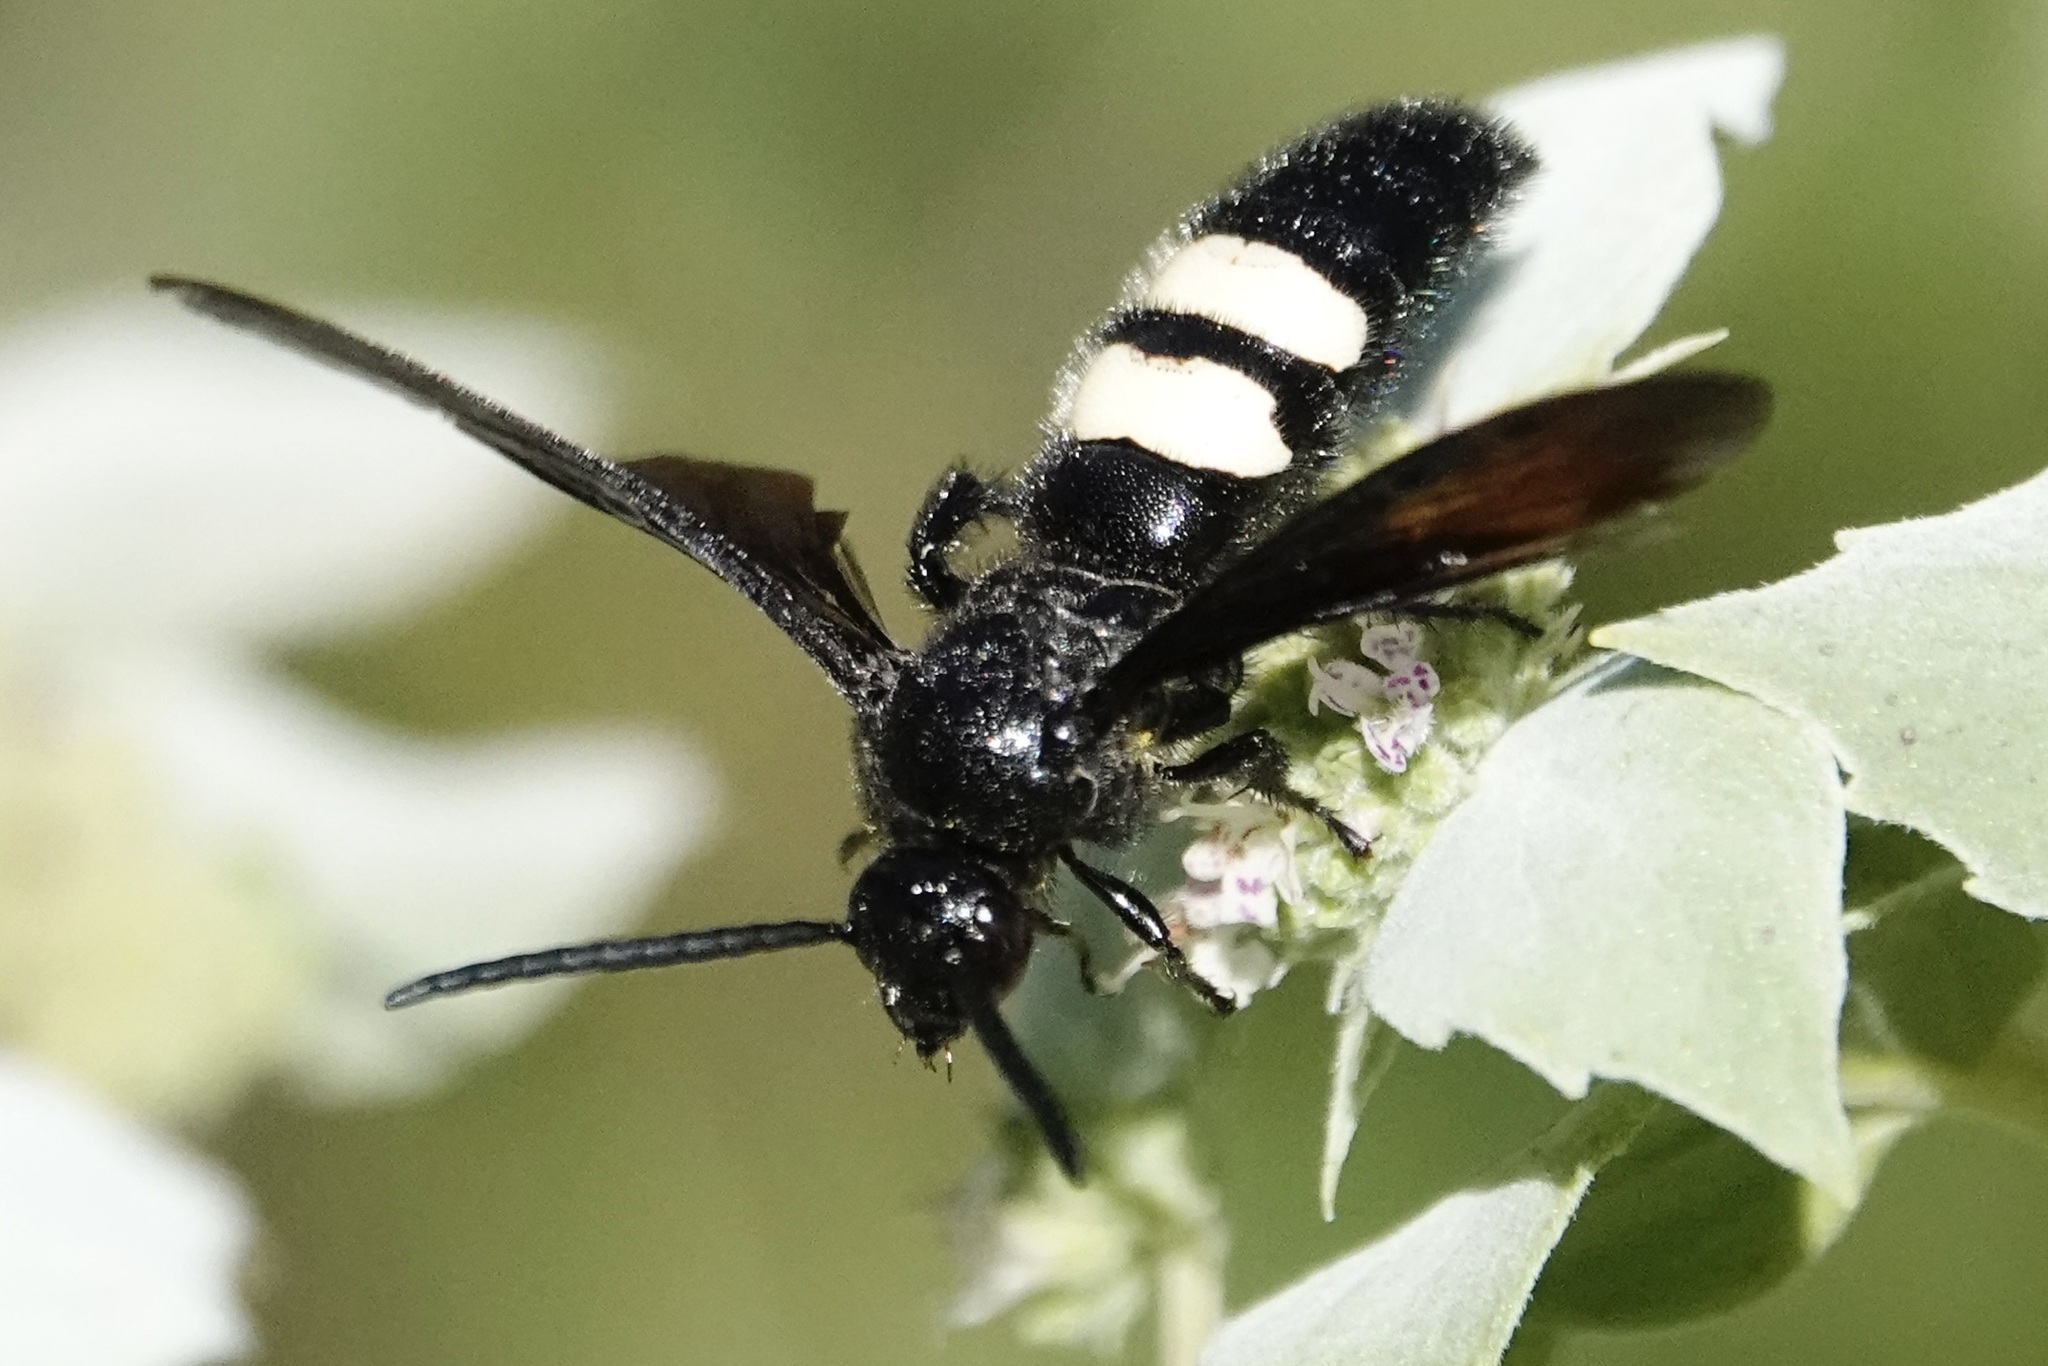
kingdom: Animalia
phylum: Arthropoda
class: Insecta
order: Hymenoptera
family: Scoliidae
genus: Scolia
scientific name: Scolia bicincta
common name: Double-banded scoliid wasp
